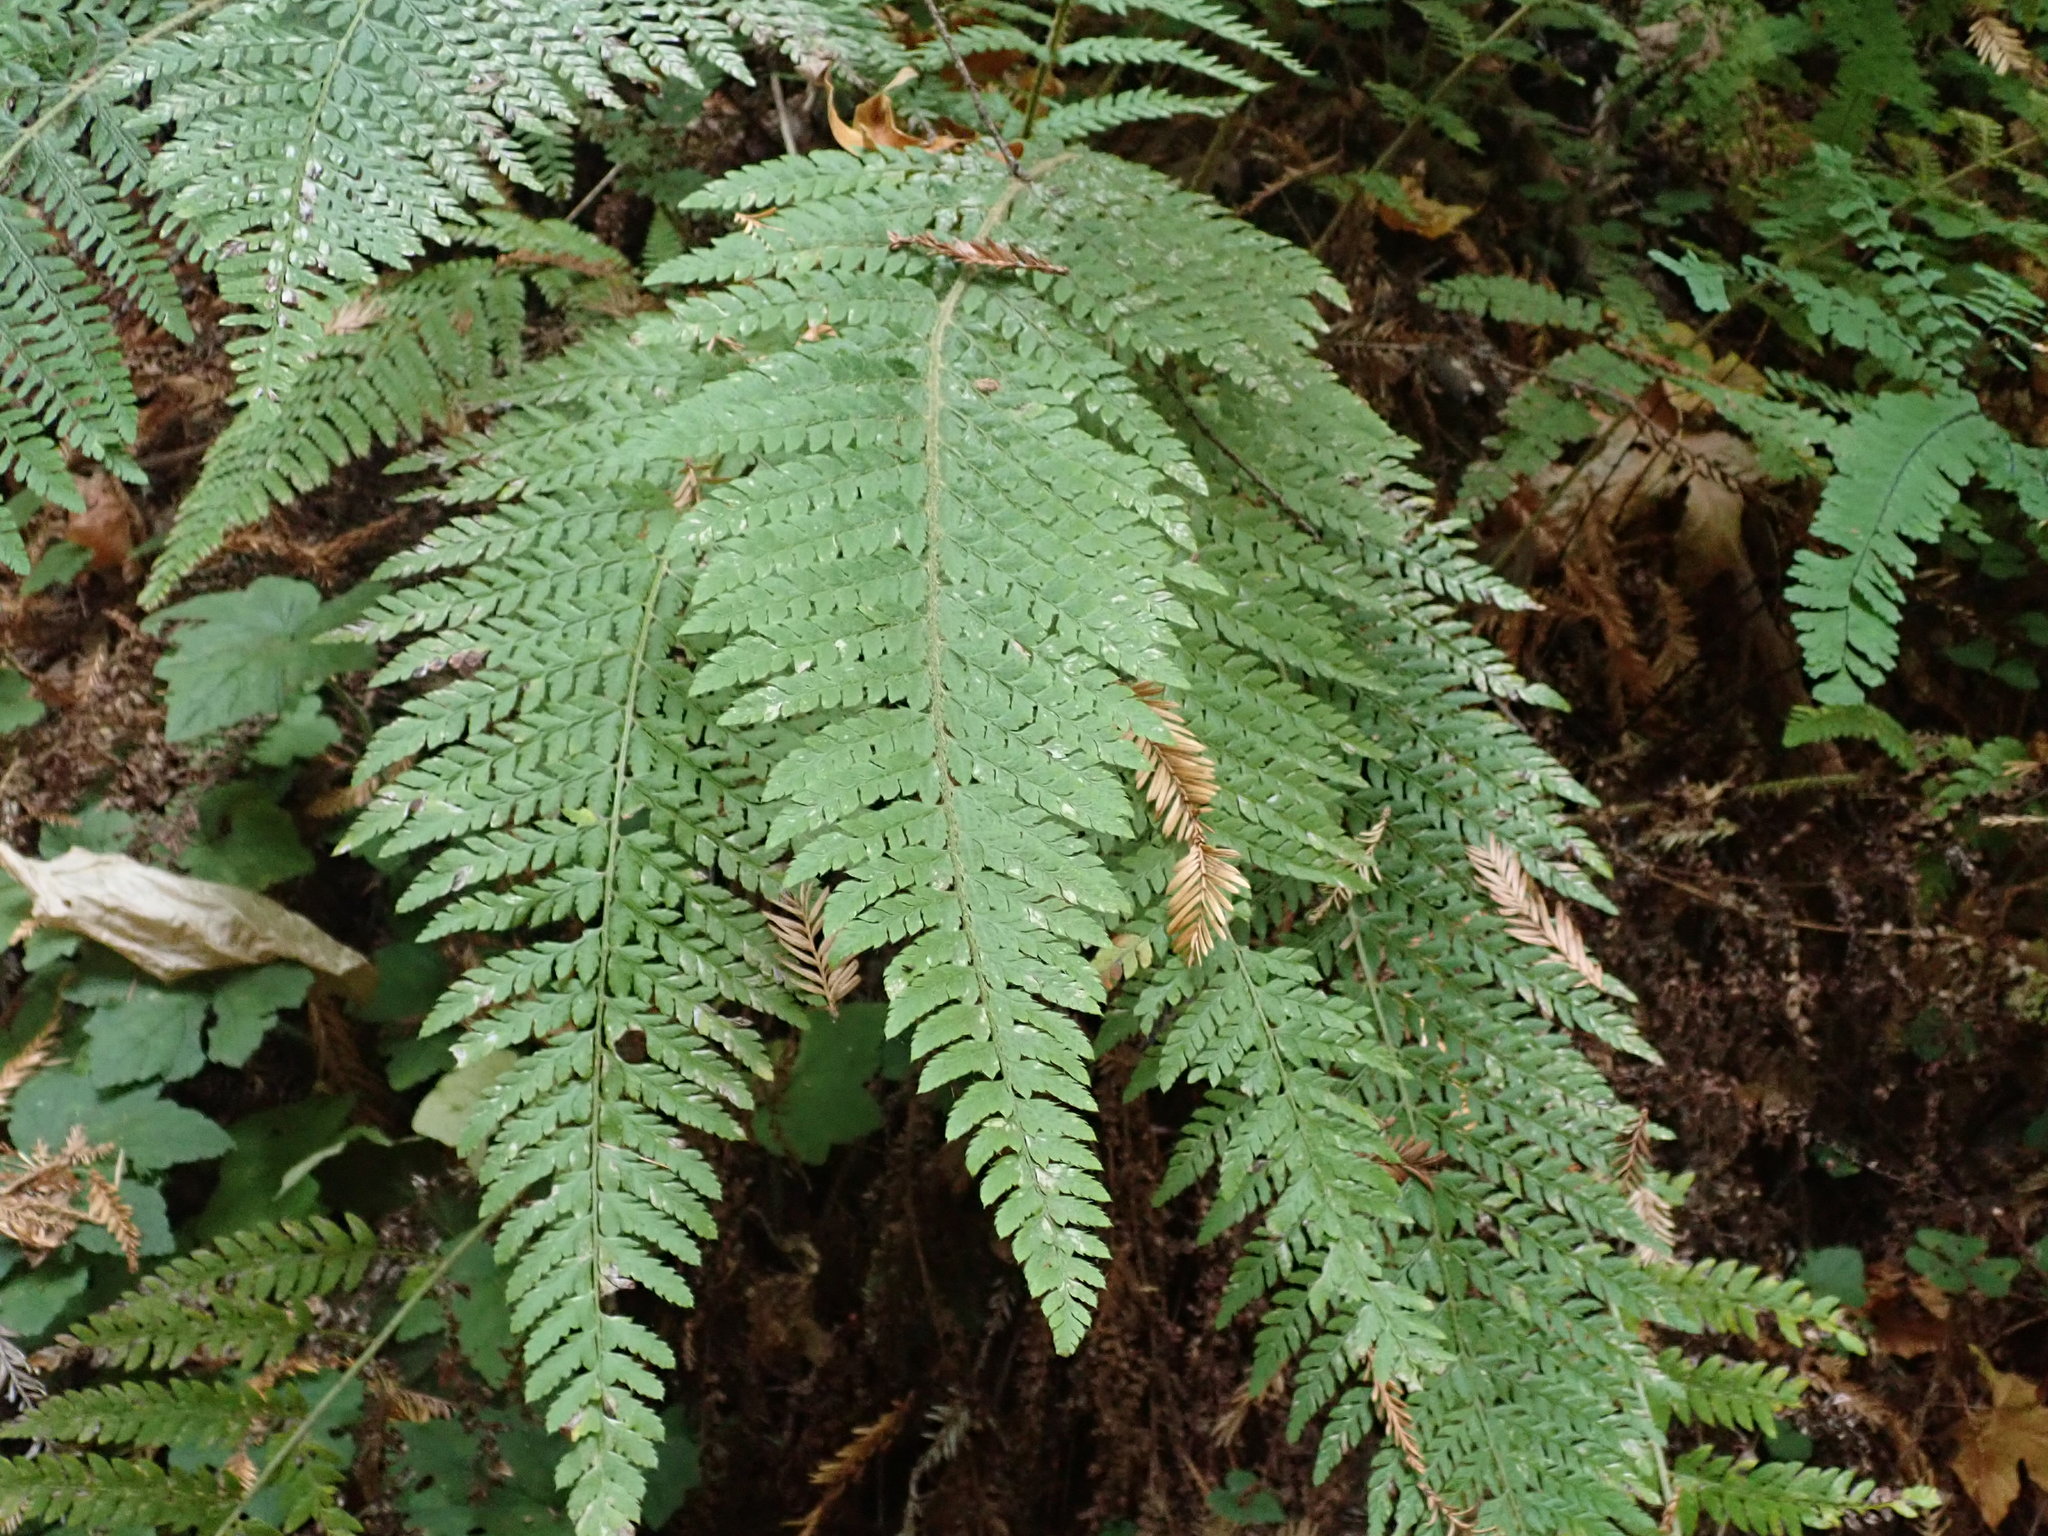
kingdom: Plantae
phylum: Tracheophyta
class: Polypodiopsida
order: Polypodiales
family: Dryopteridaceae
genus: Polystichum
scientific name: Polystichum dudleyi
